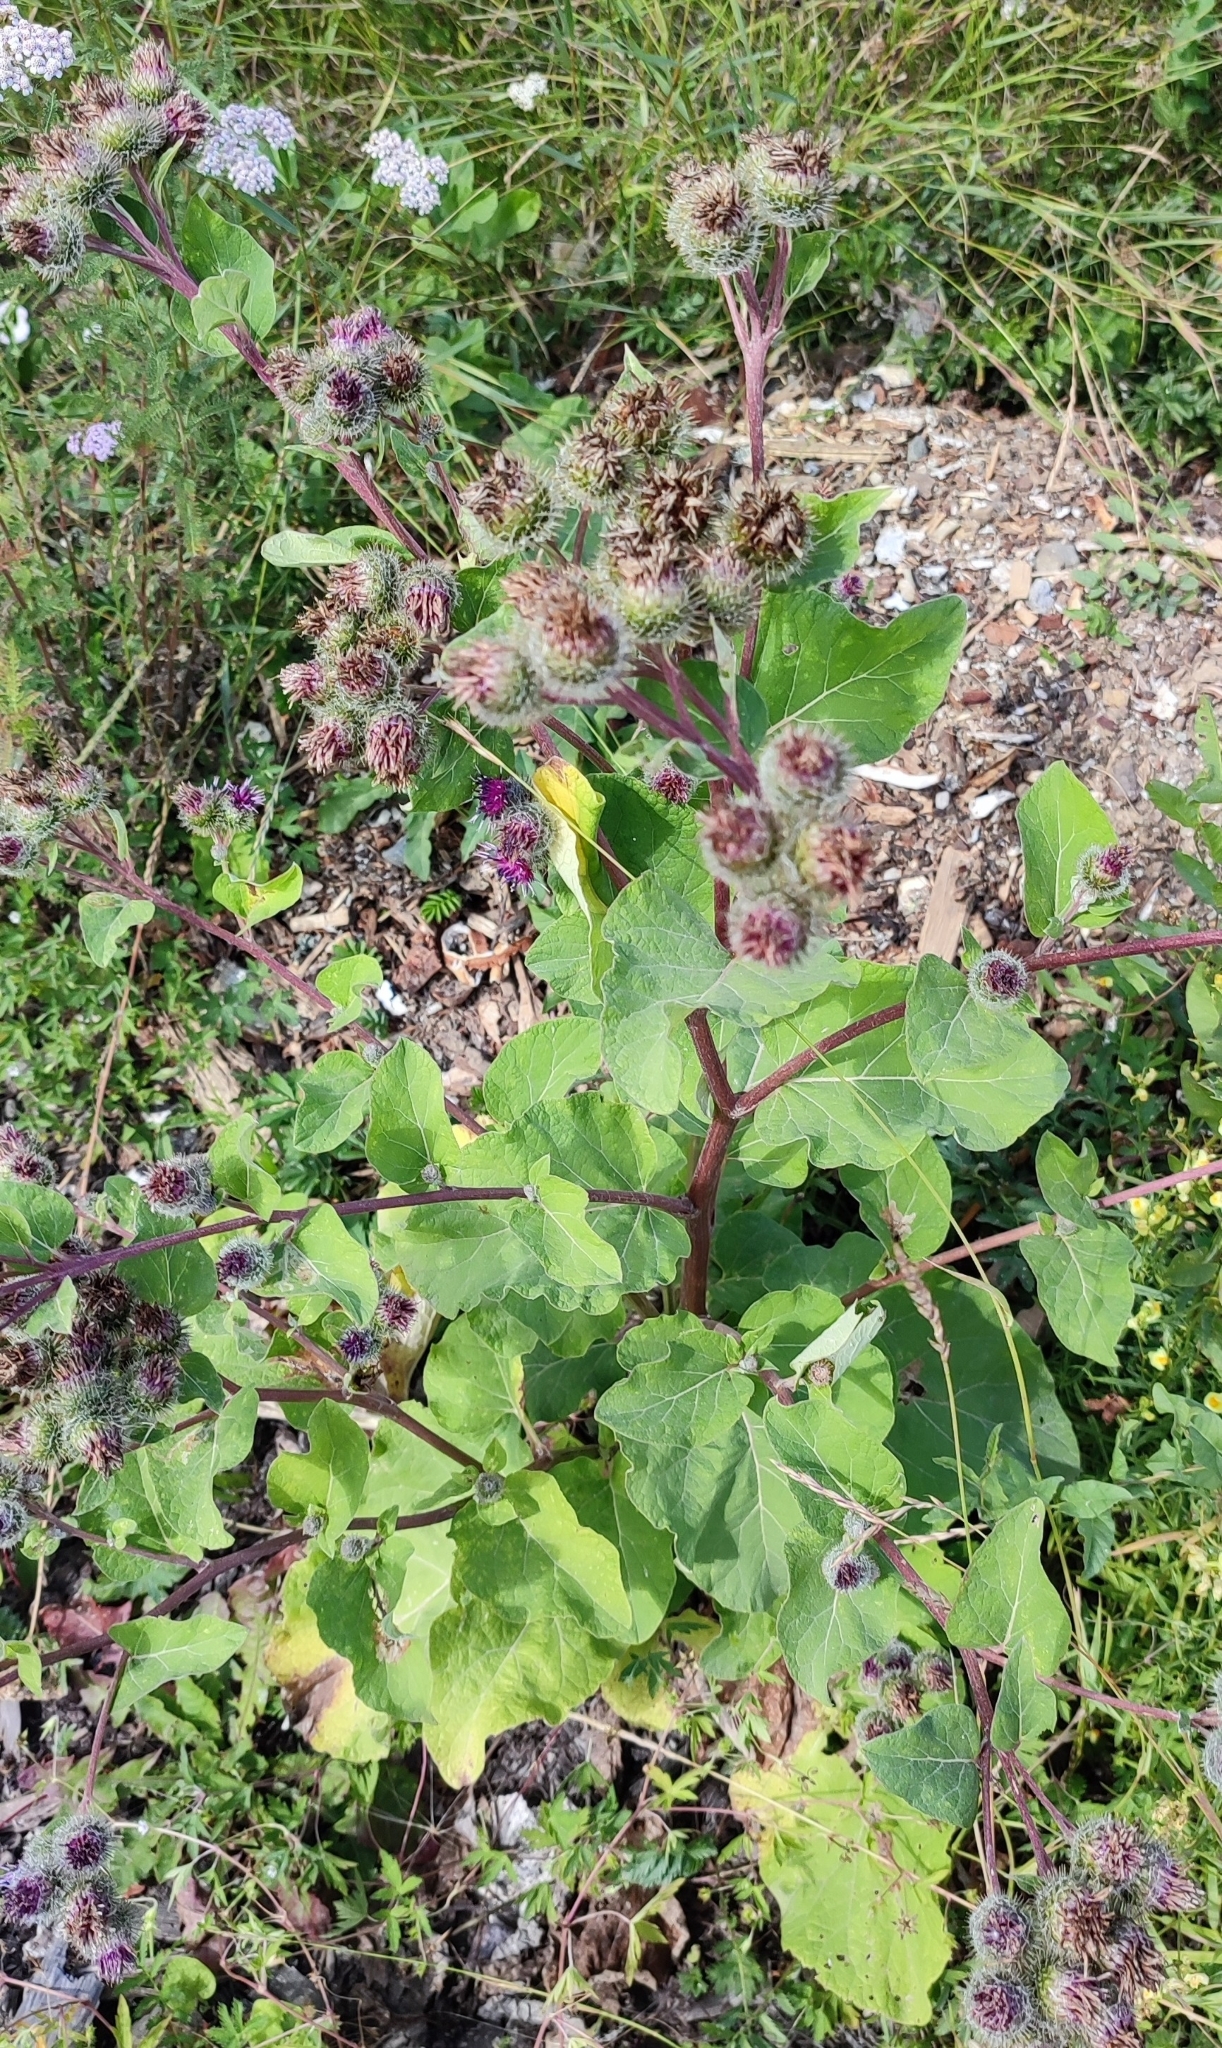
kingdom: Plantae
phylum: Tracheophyta
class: Magnoliopsida
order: Asterales
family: Asteraceae
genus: Arctium
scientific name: Arctium tomentosum
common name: Woolly burdock
